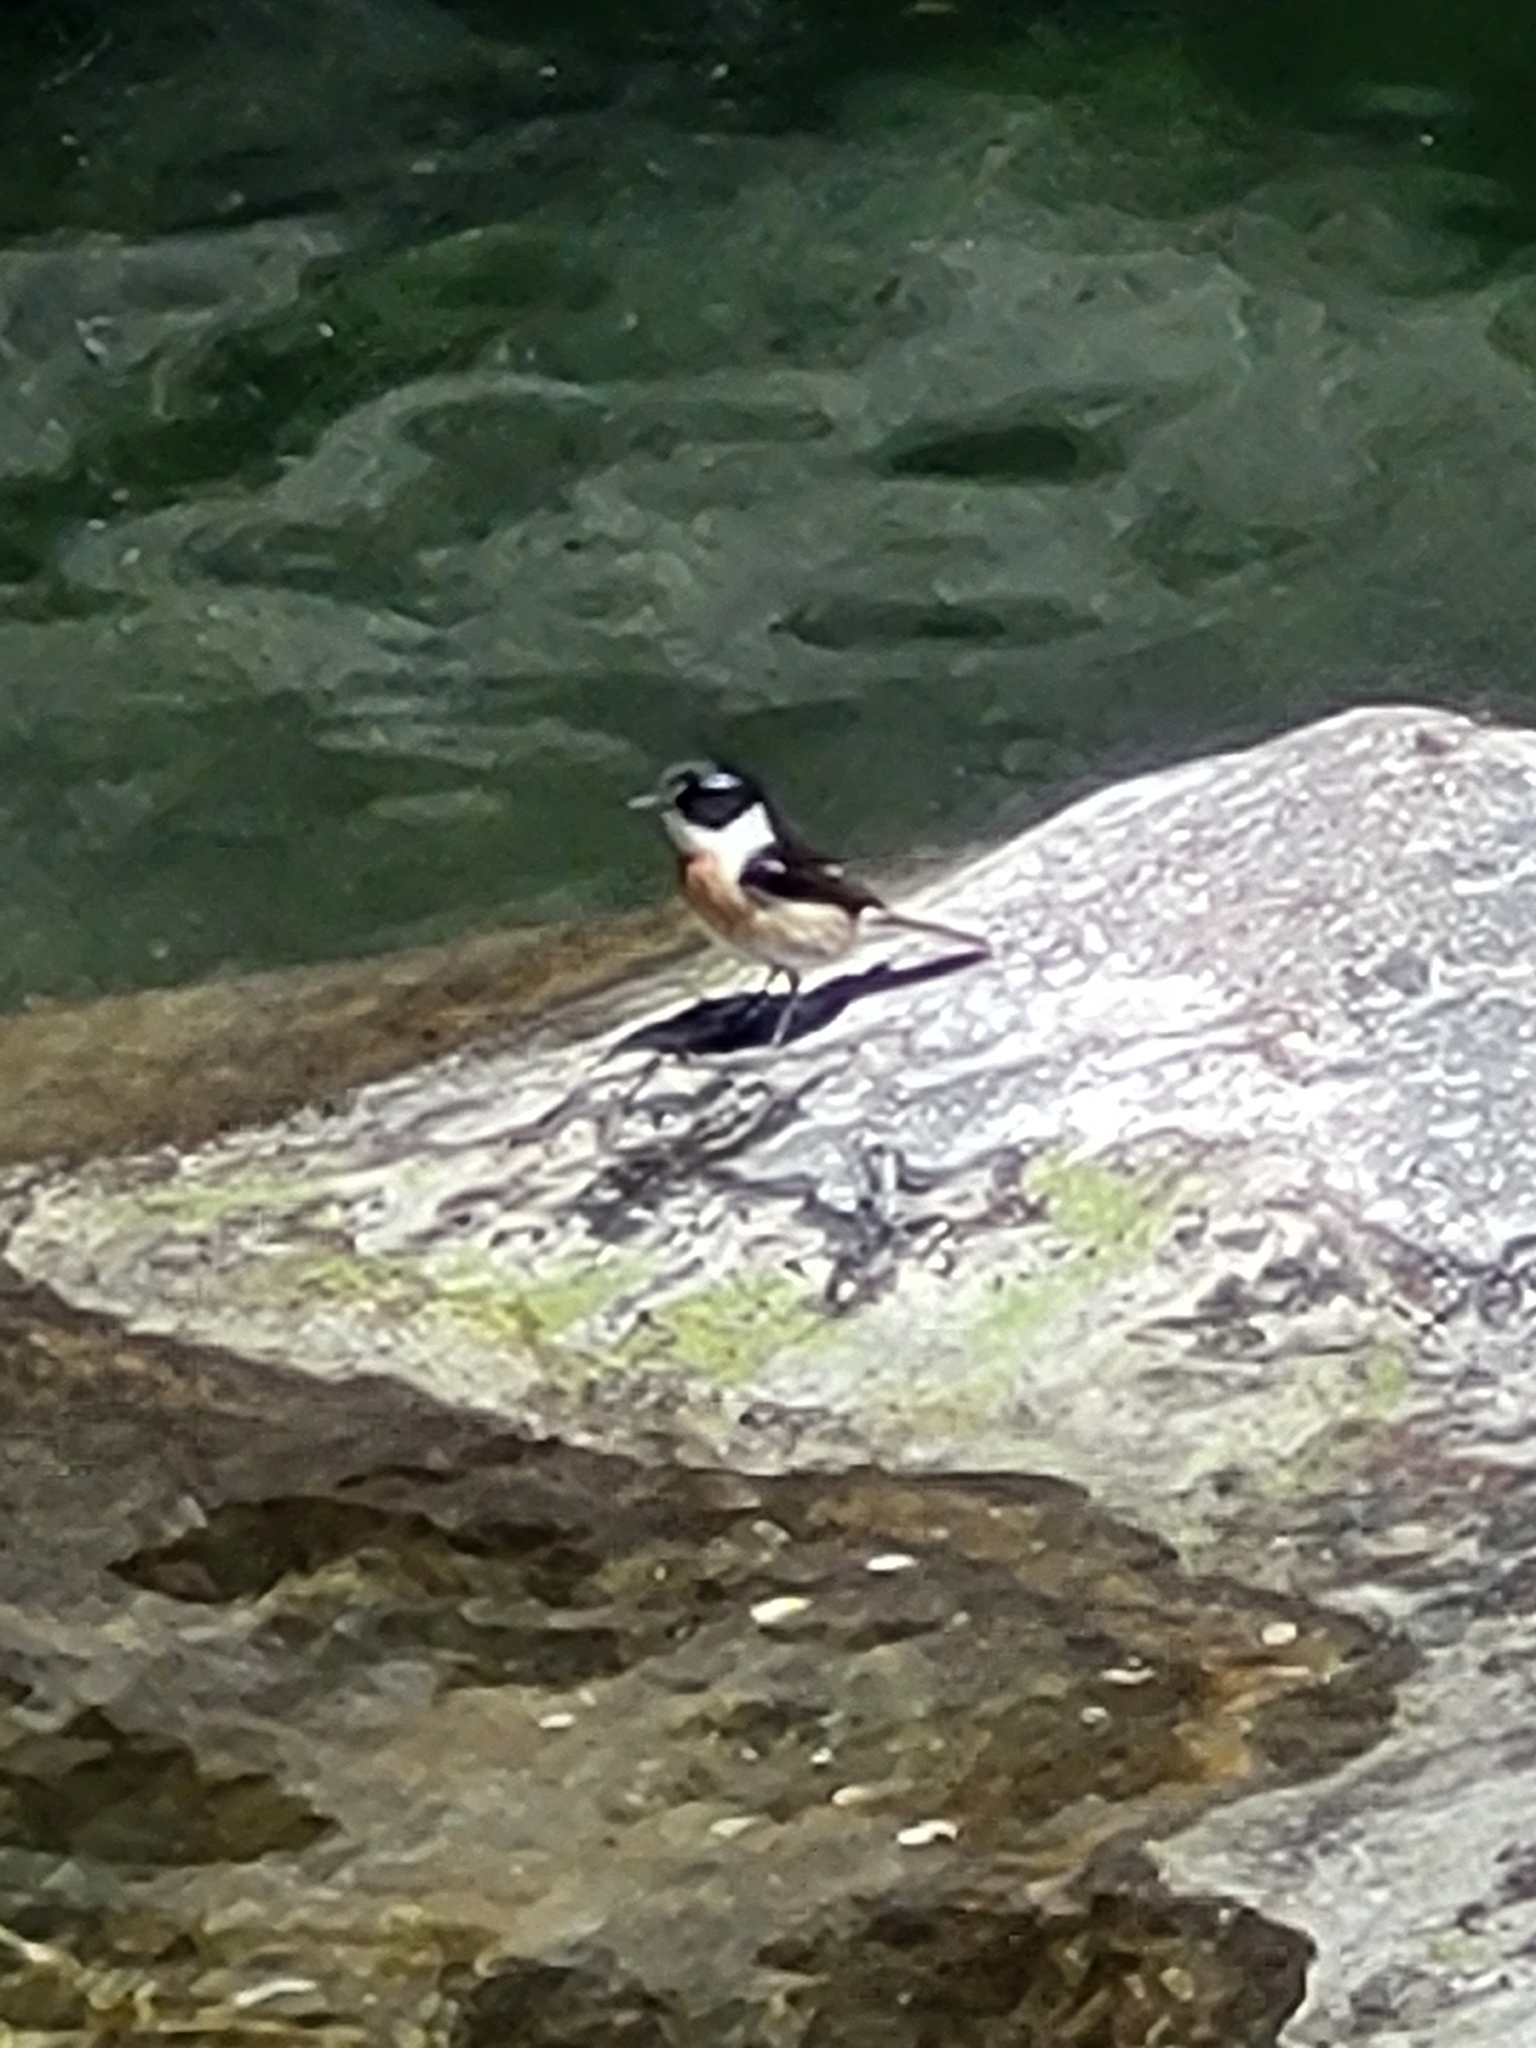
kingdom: Animalia
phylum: Chordata
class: Aves
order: Passeriformes
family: Muscicapidae
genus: Saxicola
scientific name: Saxicola tectes
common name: Reunion stonechat
